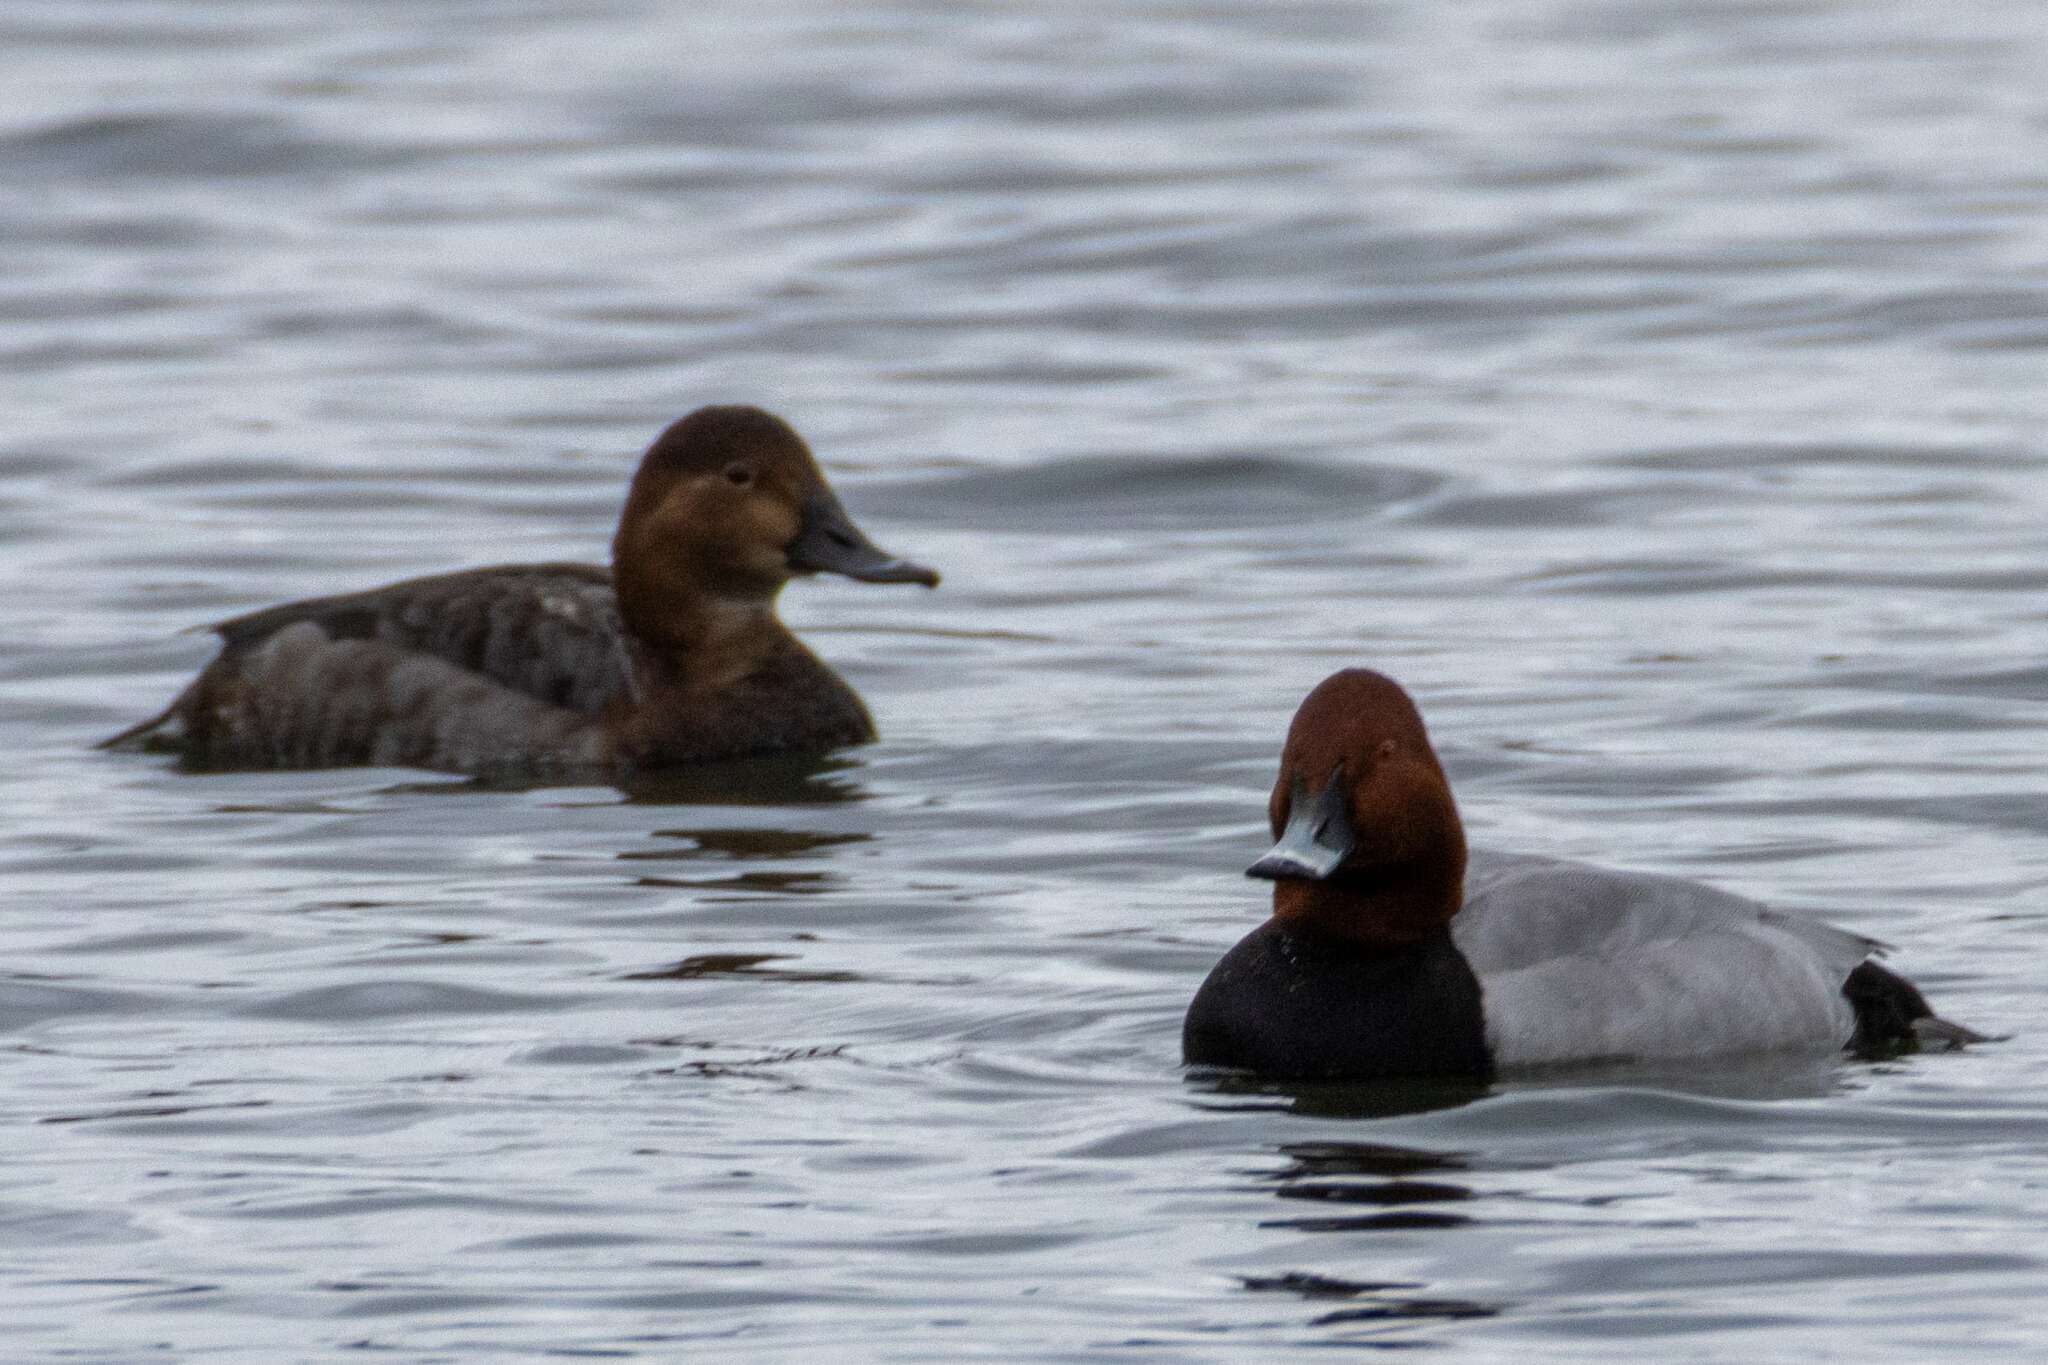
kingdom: Animalia
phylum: Chordata
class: Aves
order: Anseriformes
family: Anatidae
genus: Aythya
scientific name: Aythya ferina
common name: Common pochard
